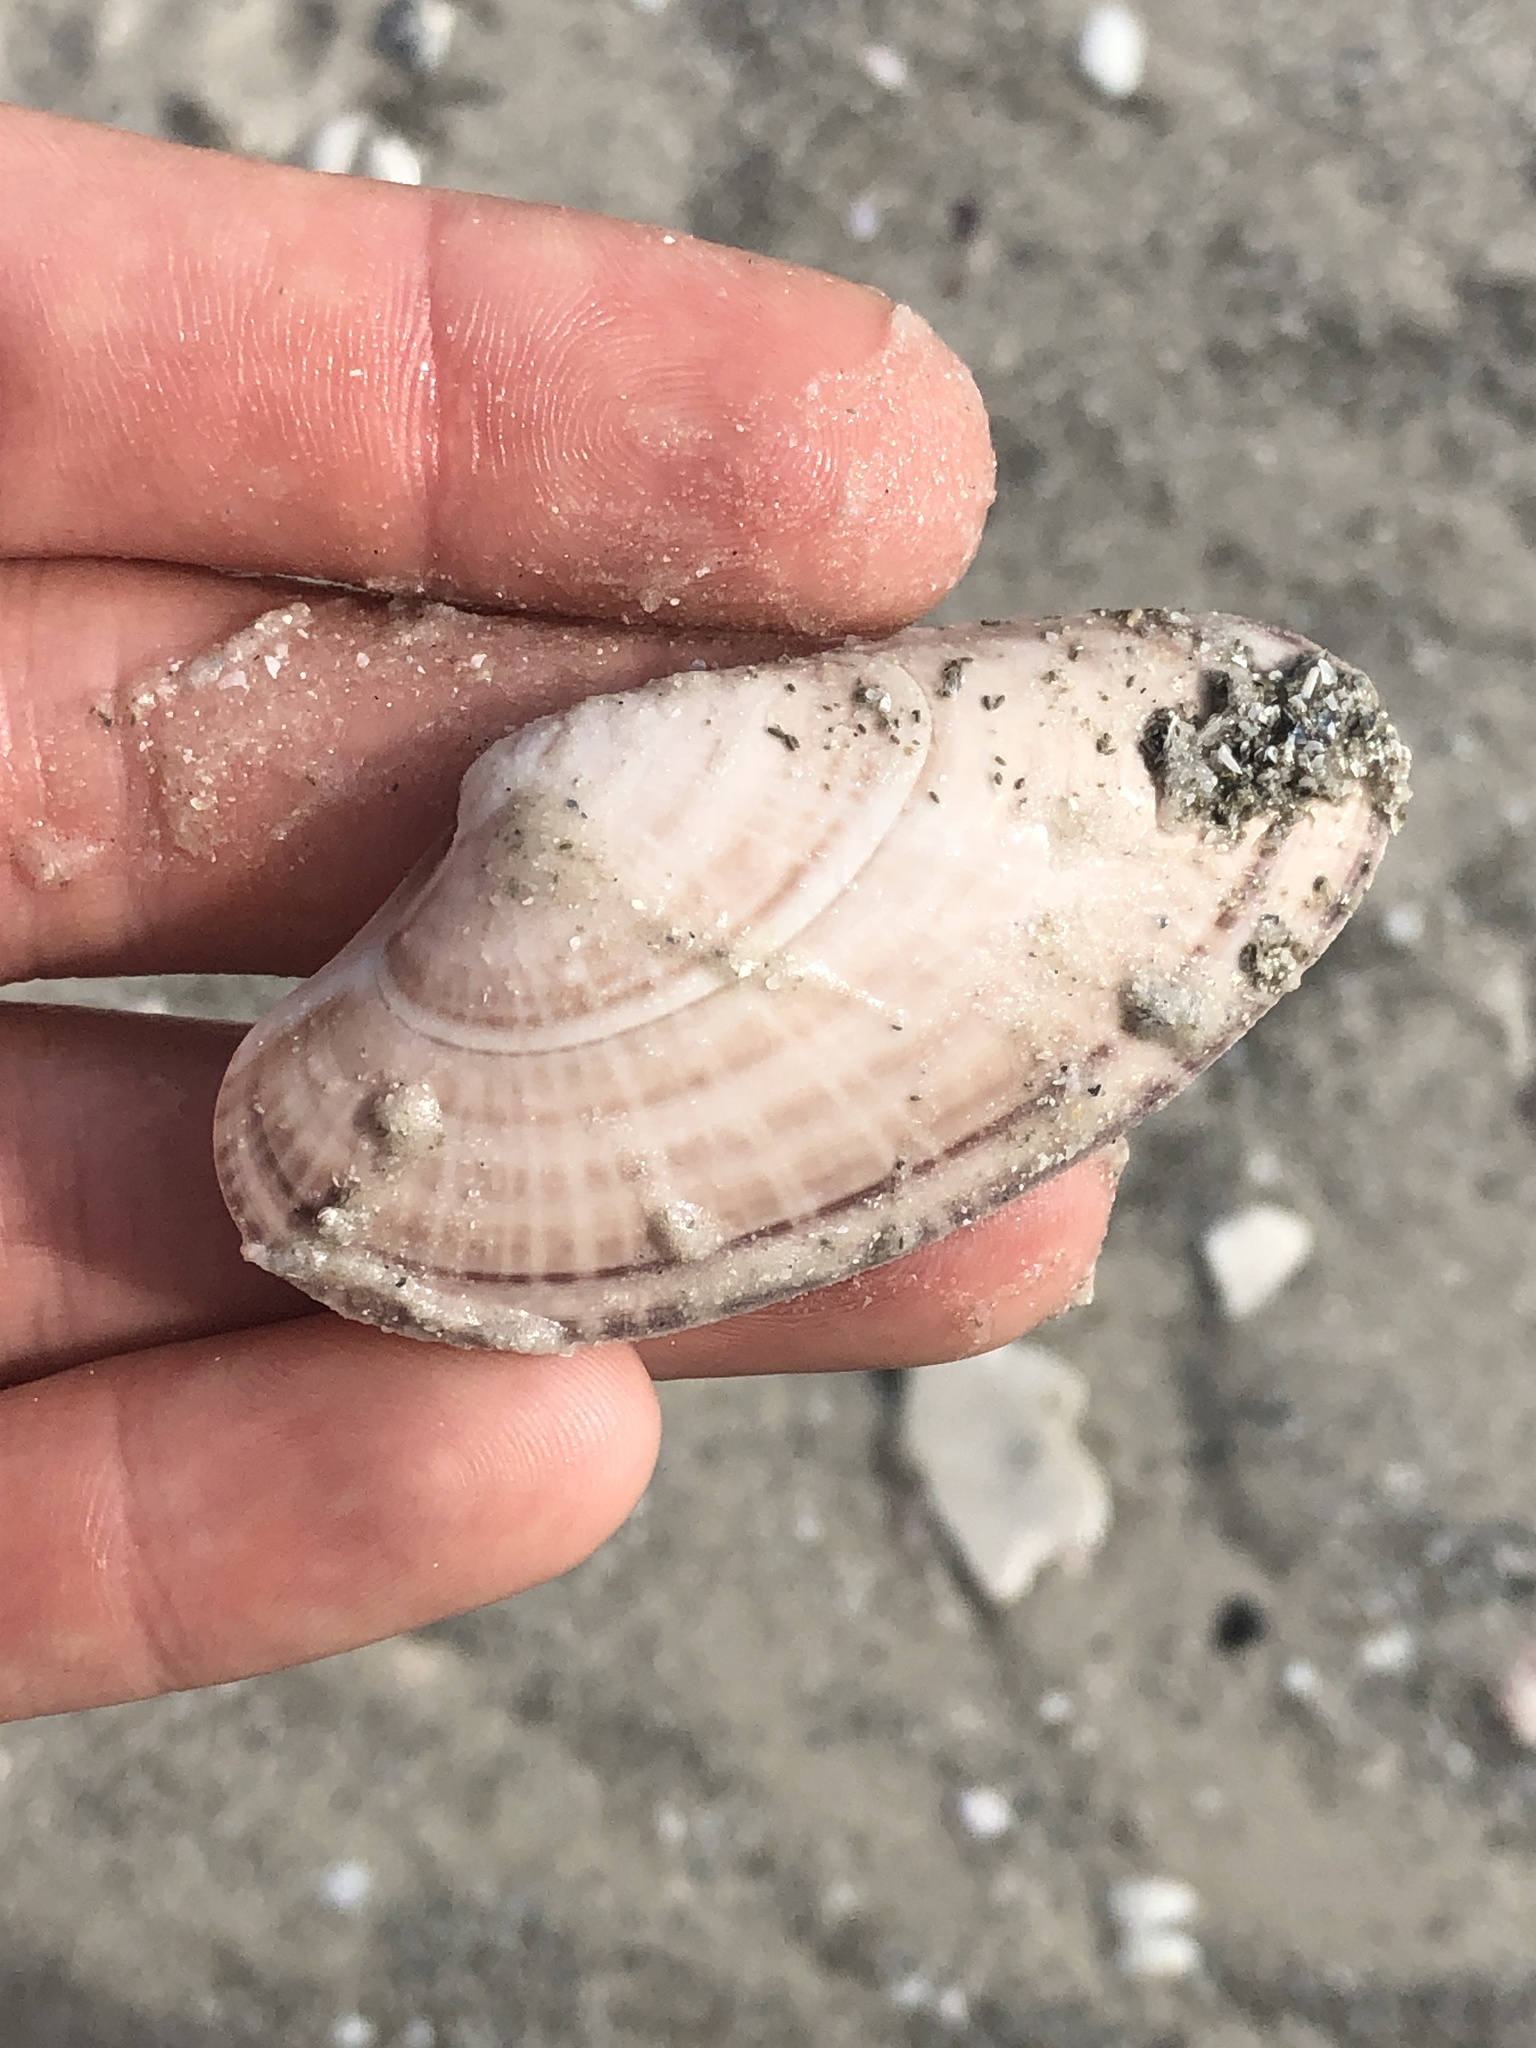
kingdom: Animalia
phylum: Mollusca
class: Bivalvia
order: Venerida
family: Veneridae
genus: Macrocallista
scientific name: Macrocallista nimbosa
